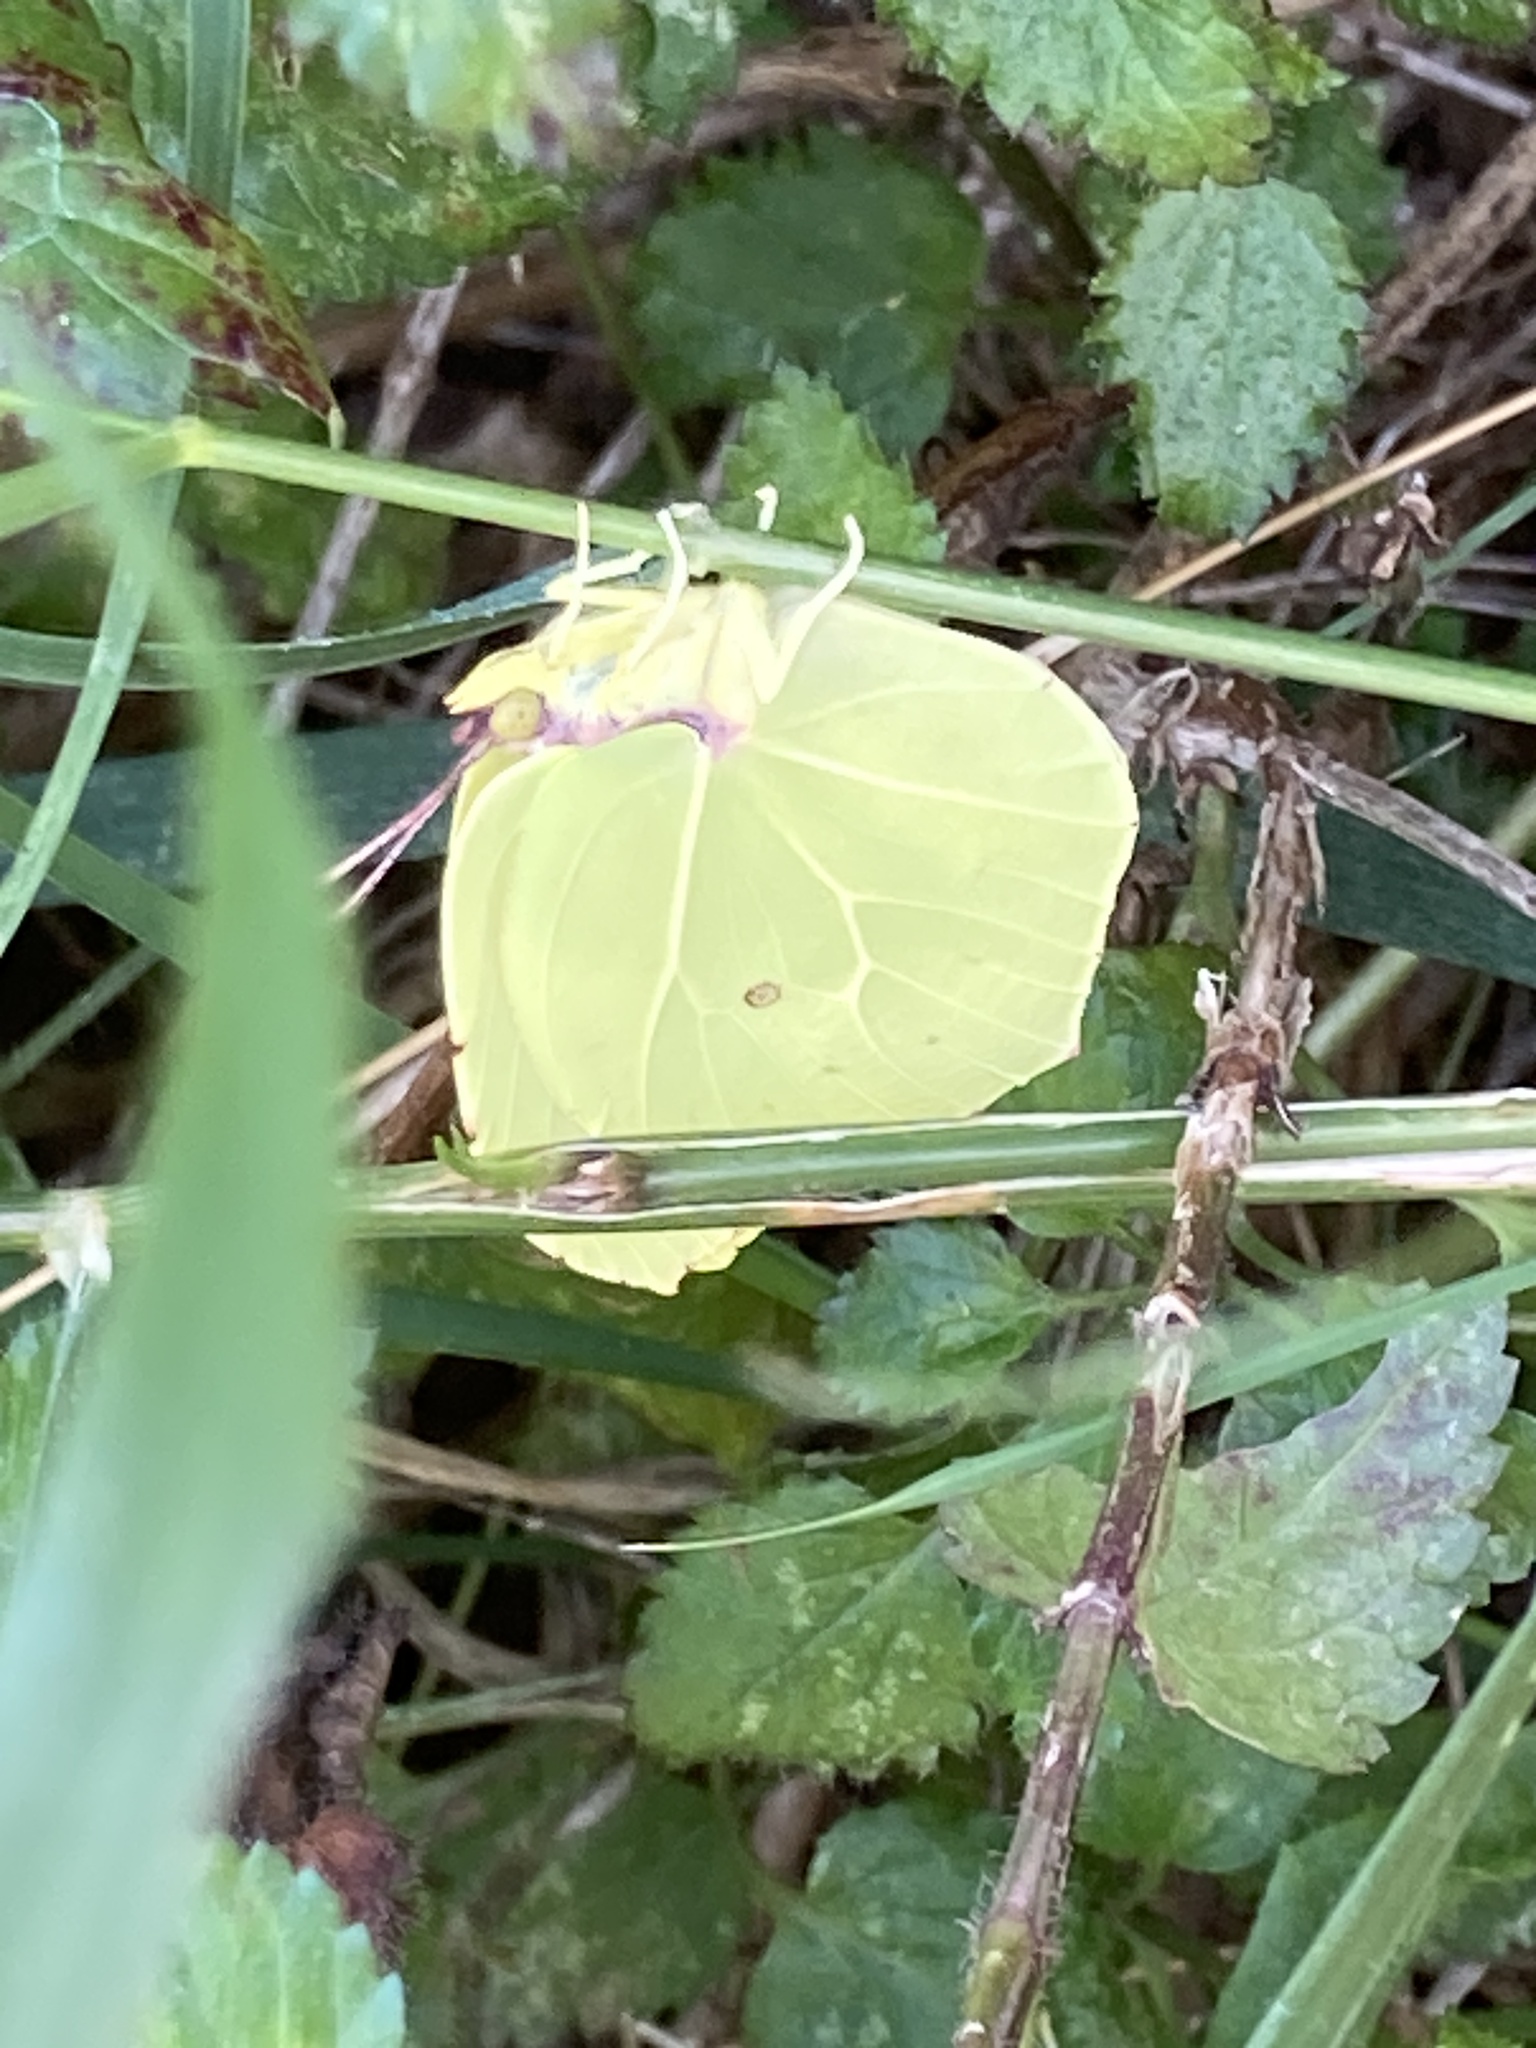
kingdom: Animalia
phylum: Arthropoda
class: Insecta
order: Lepidoptera
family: Pieridae
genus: Gonepteryx
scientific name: Gonepteryx cleopatra
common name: Cleopatra
